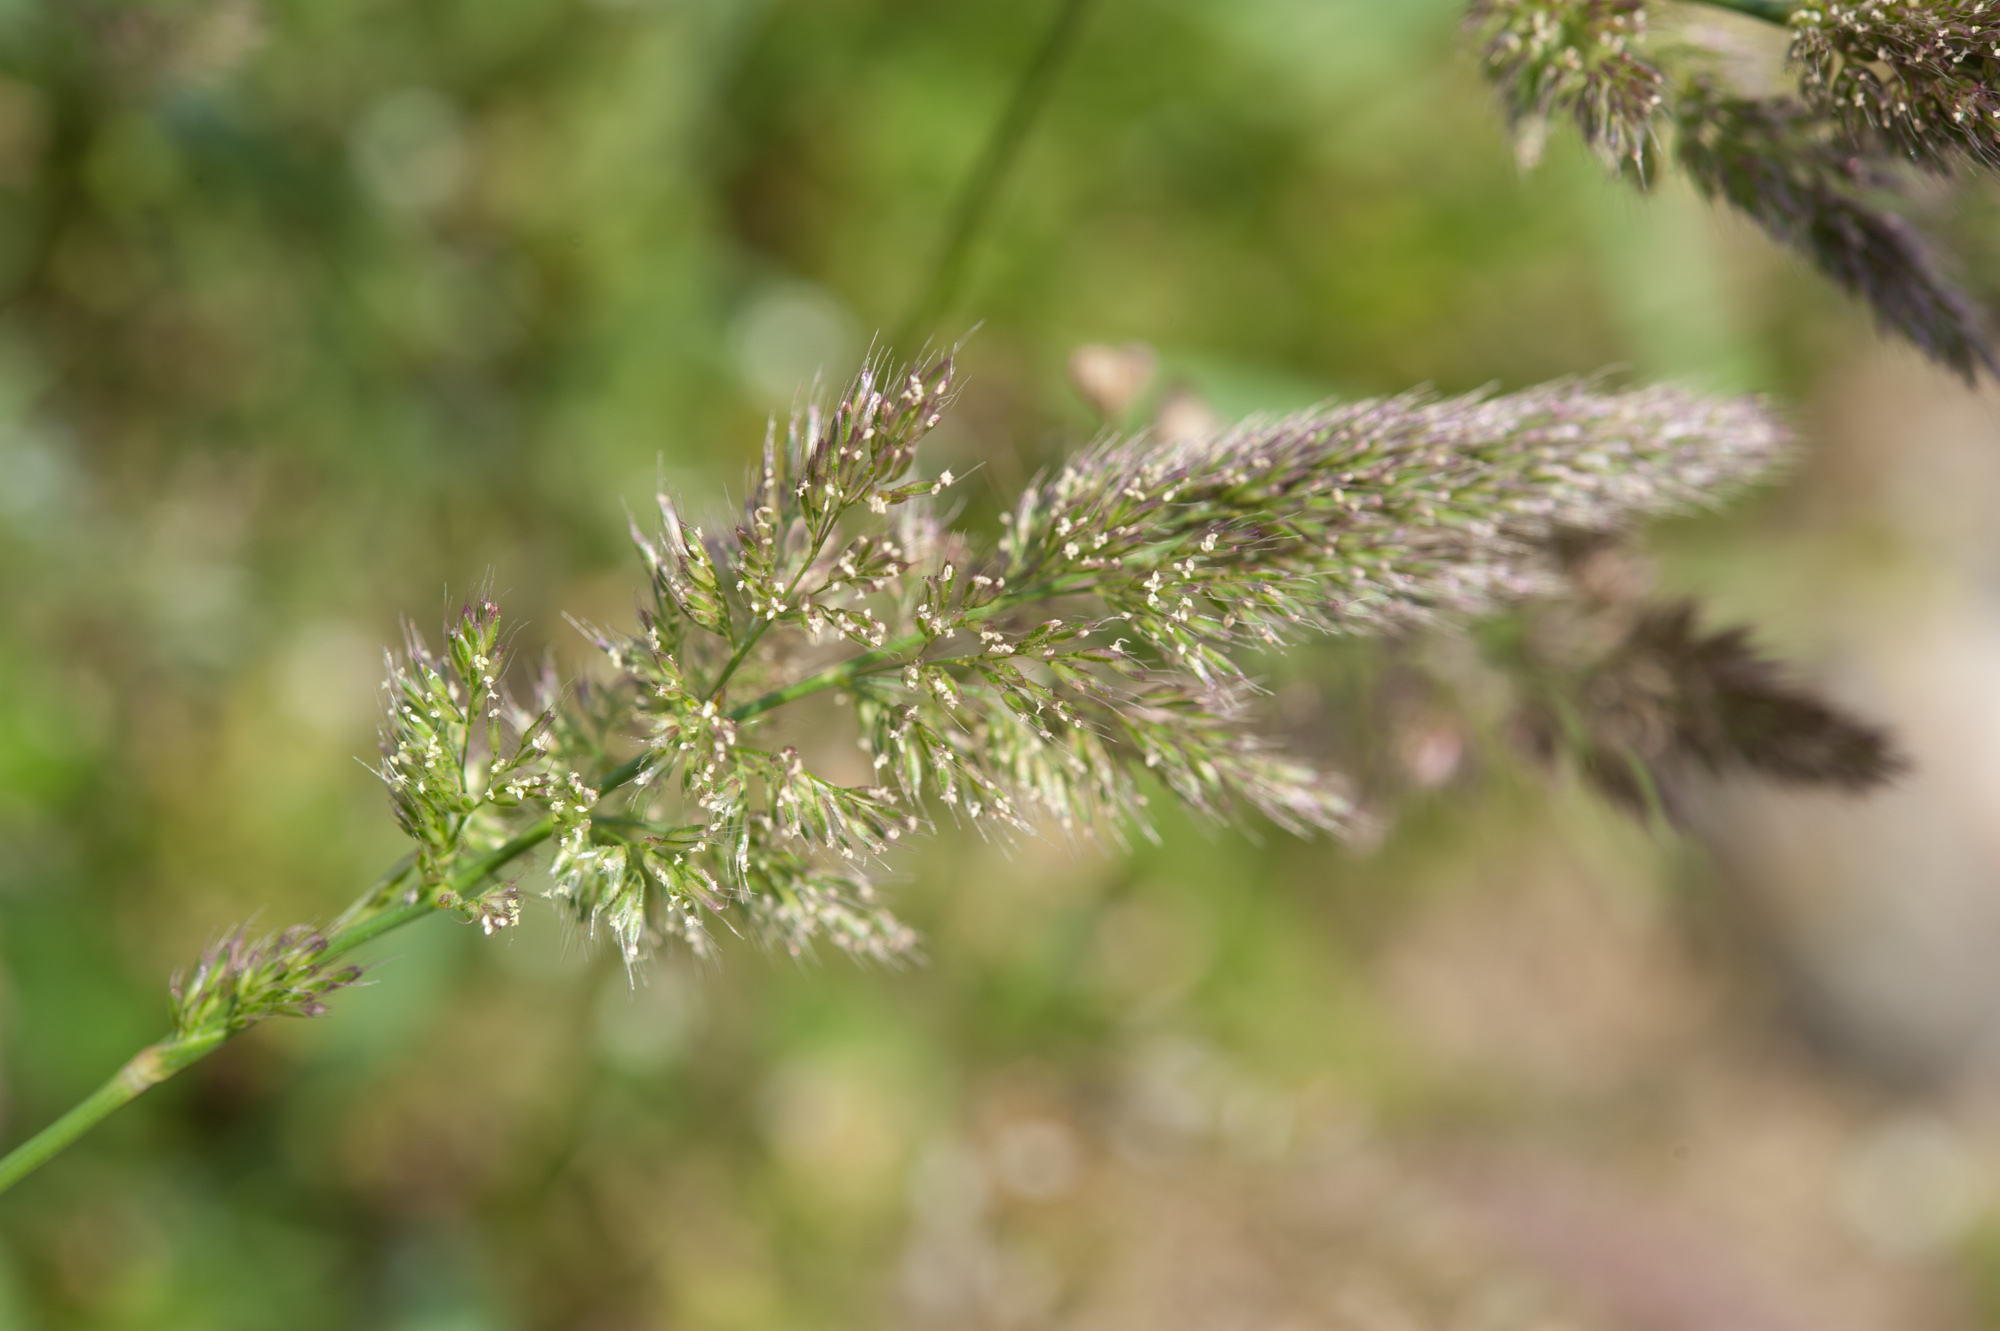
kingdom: Plantae
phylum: Tracheophyta
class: Liliopsida
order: Poales
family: Poaceae
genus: Polypogon
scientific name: Polypogon fugax
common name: Asia minor bluegrass
